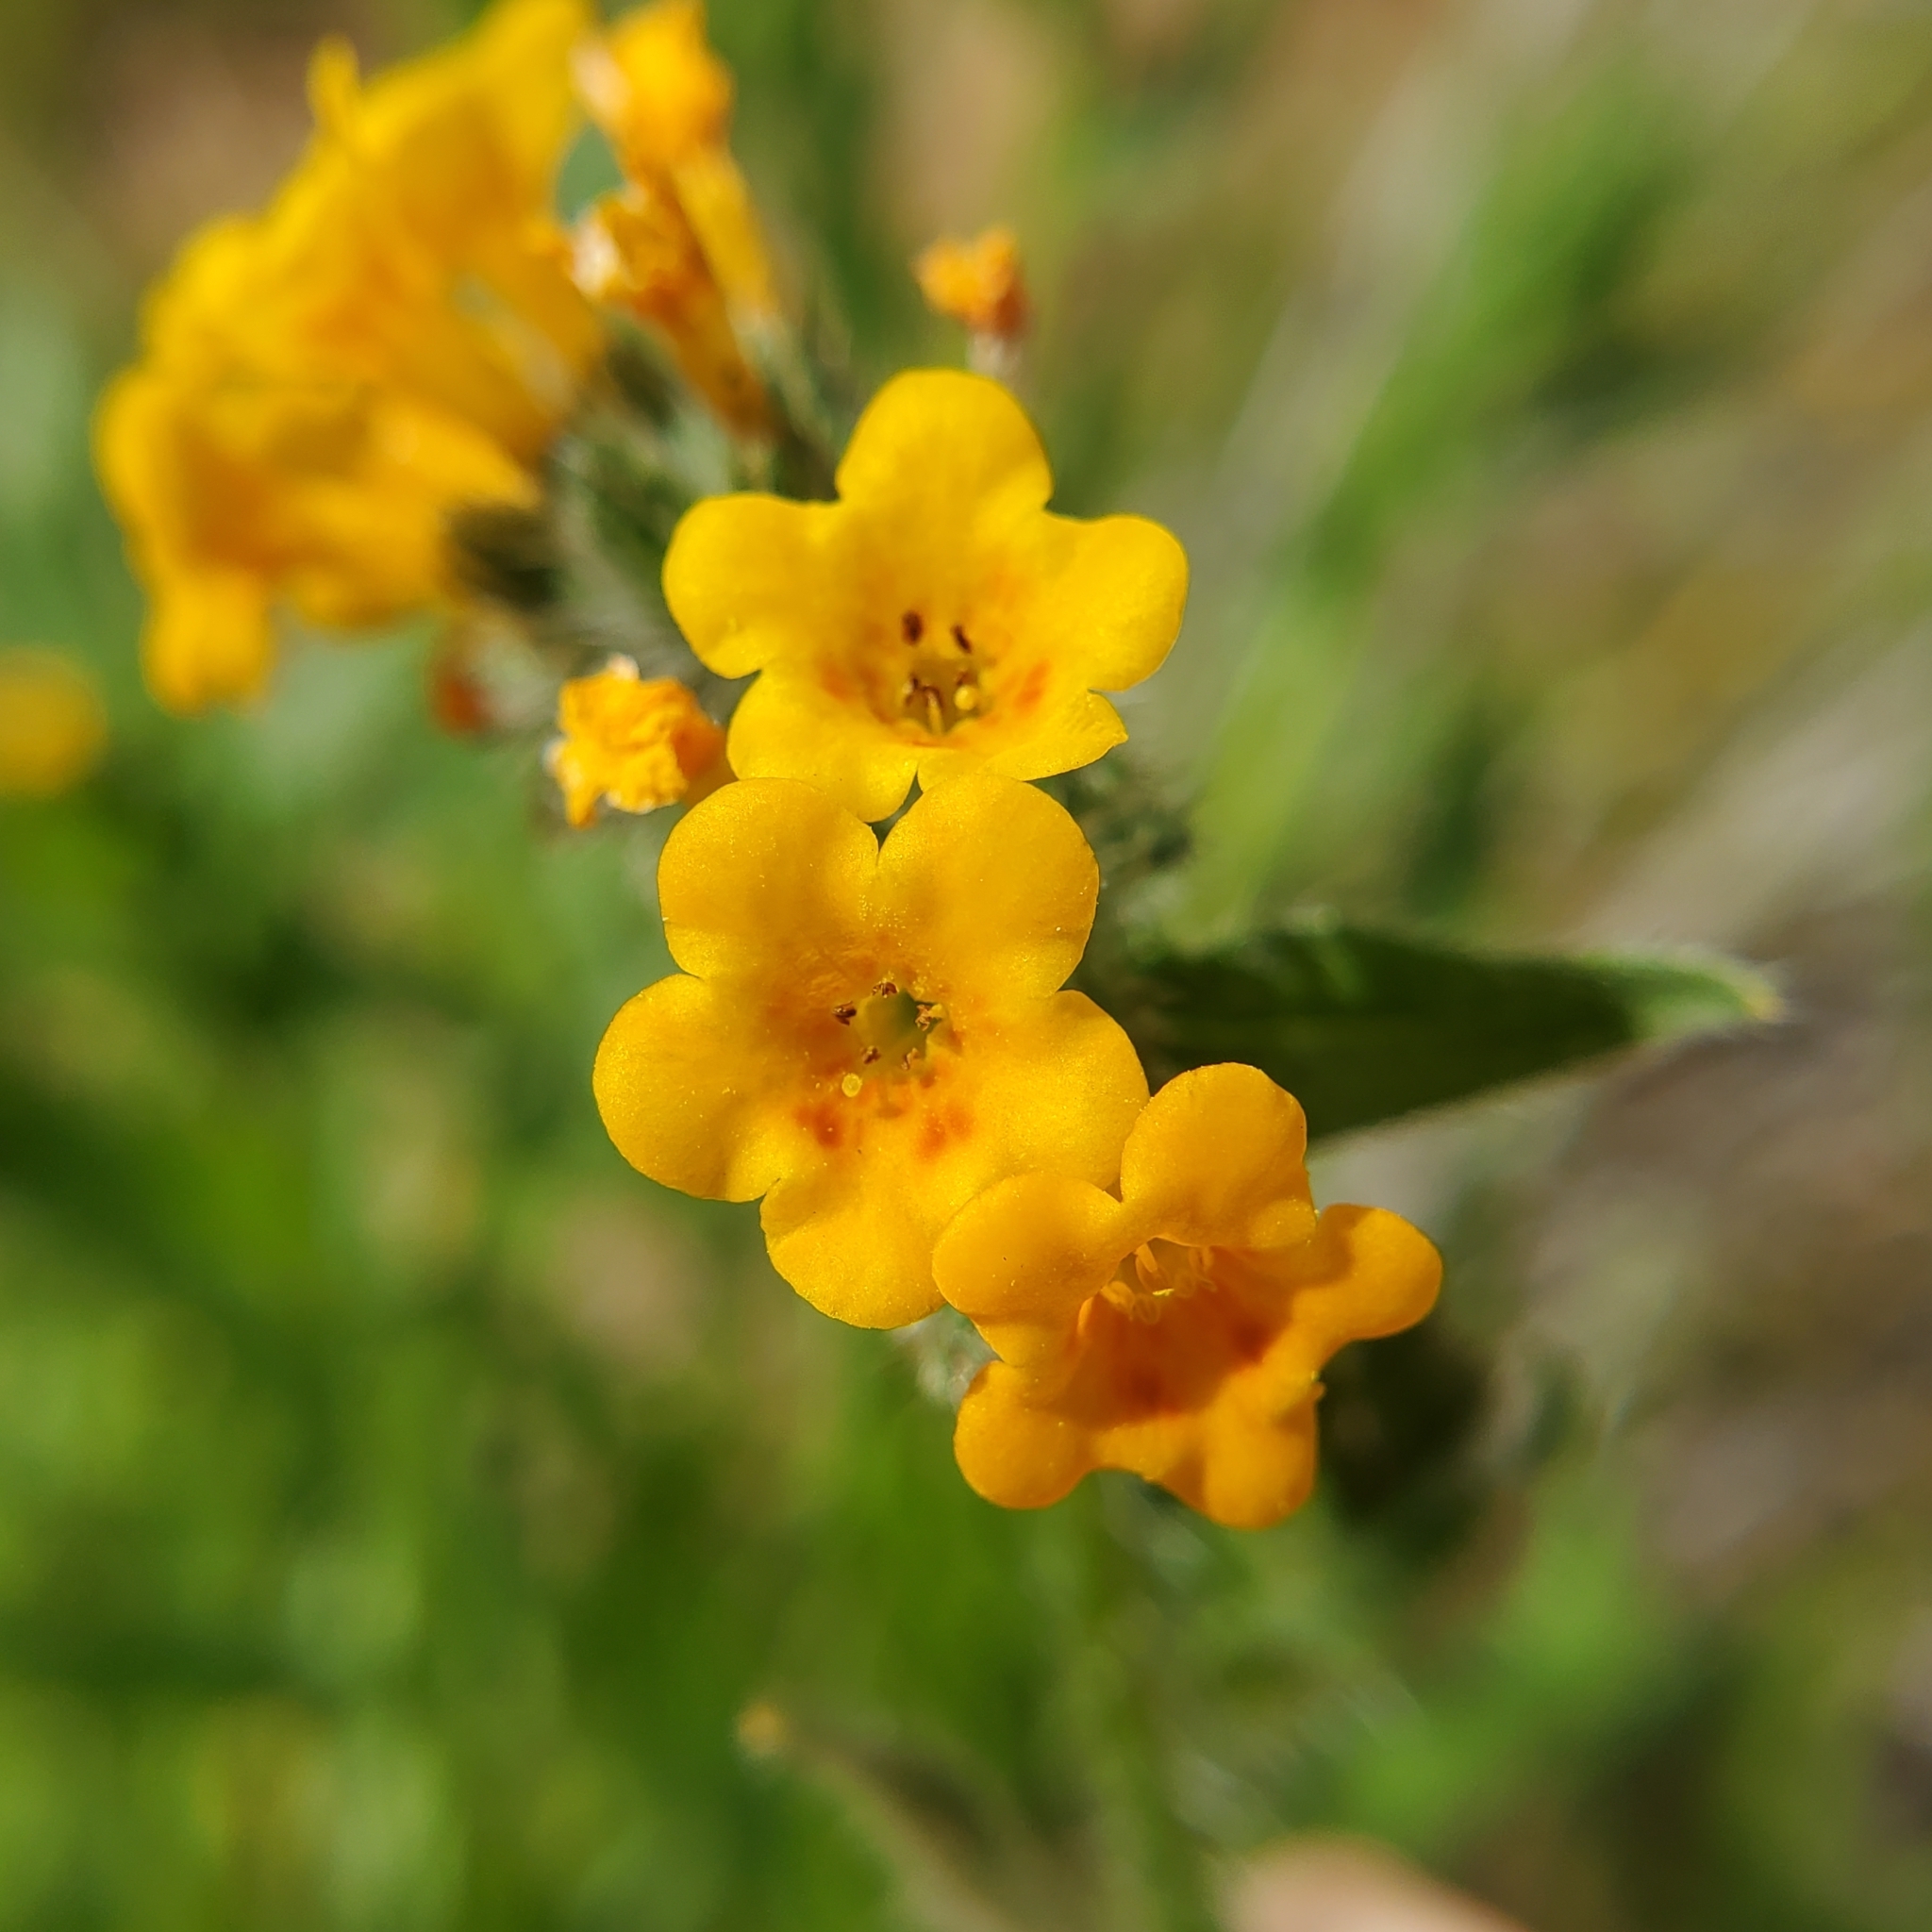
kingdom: Plantae
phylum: Tracheophyta
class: Magnoliopsida
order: Boraginales
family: Boraginaceae
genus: Amsinckia
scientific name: Amsinckia menziesii
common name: Menzies' fiddleneck
